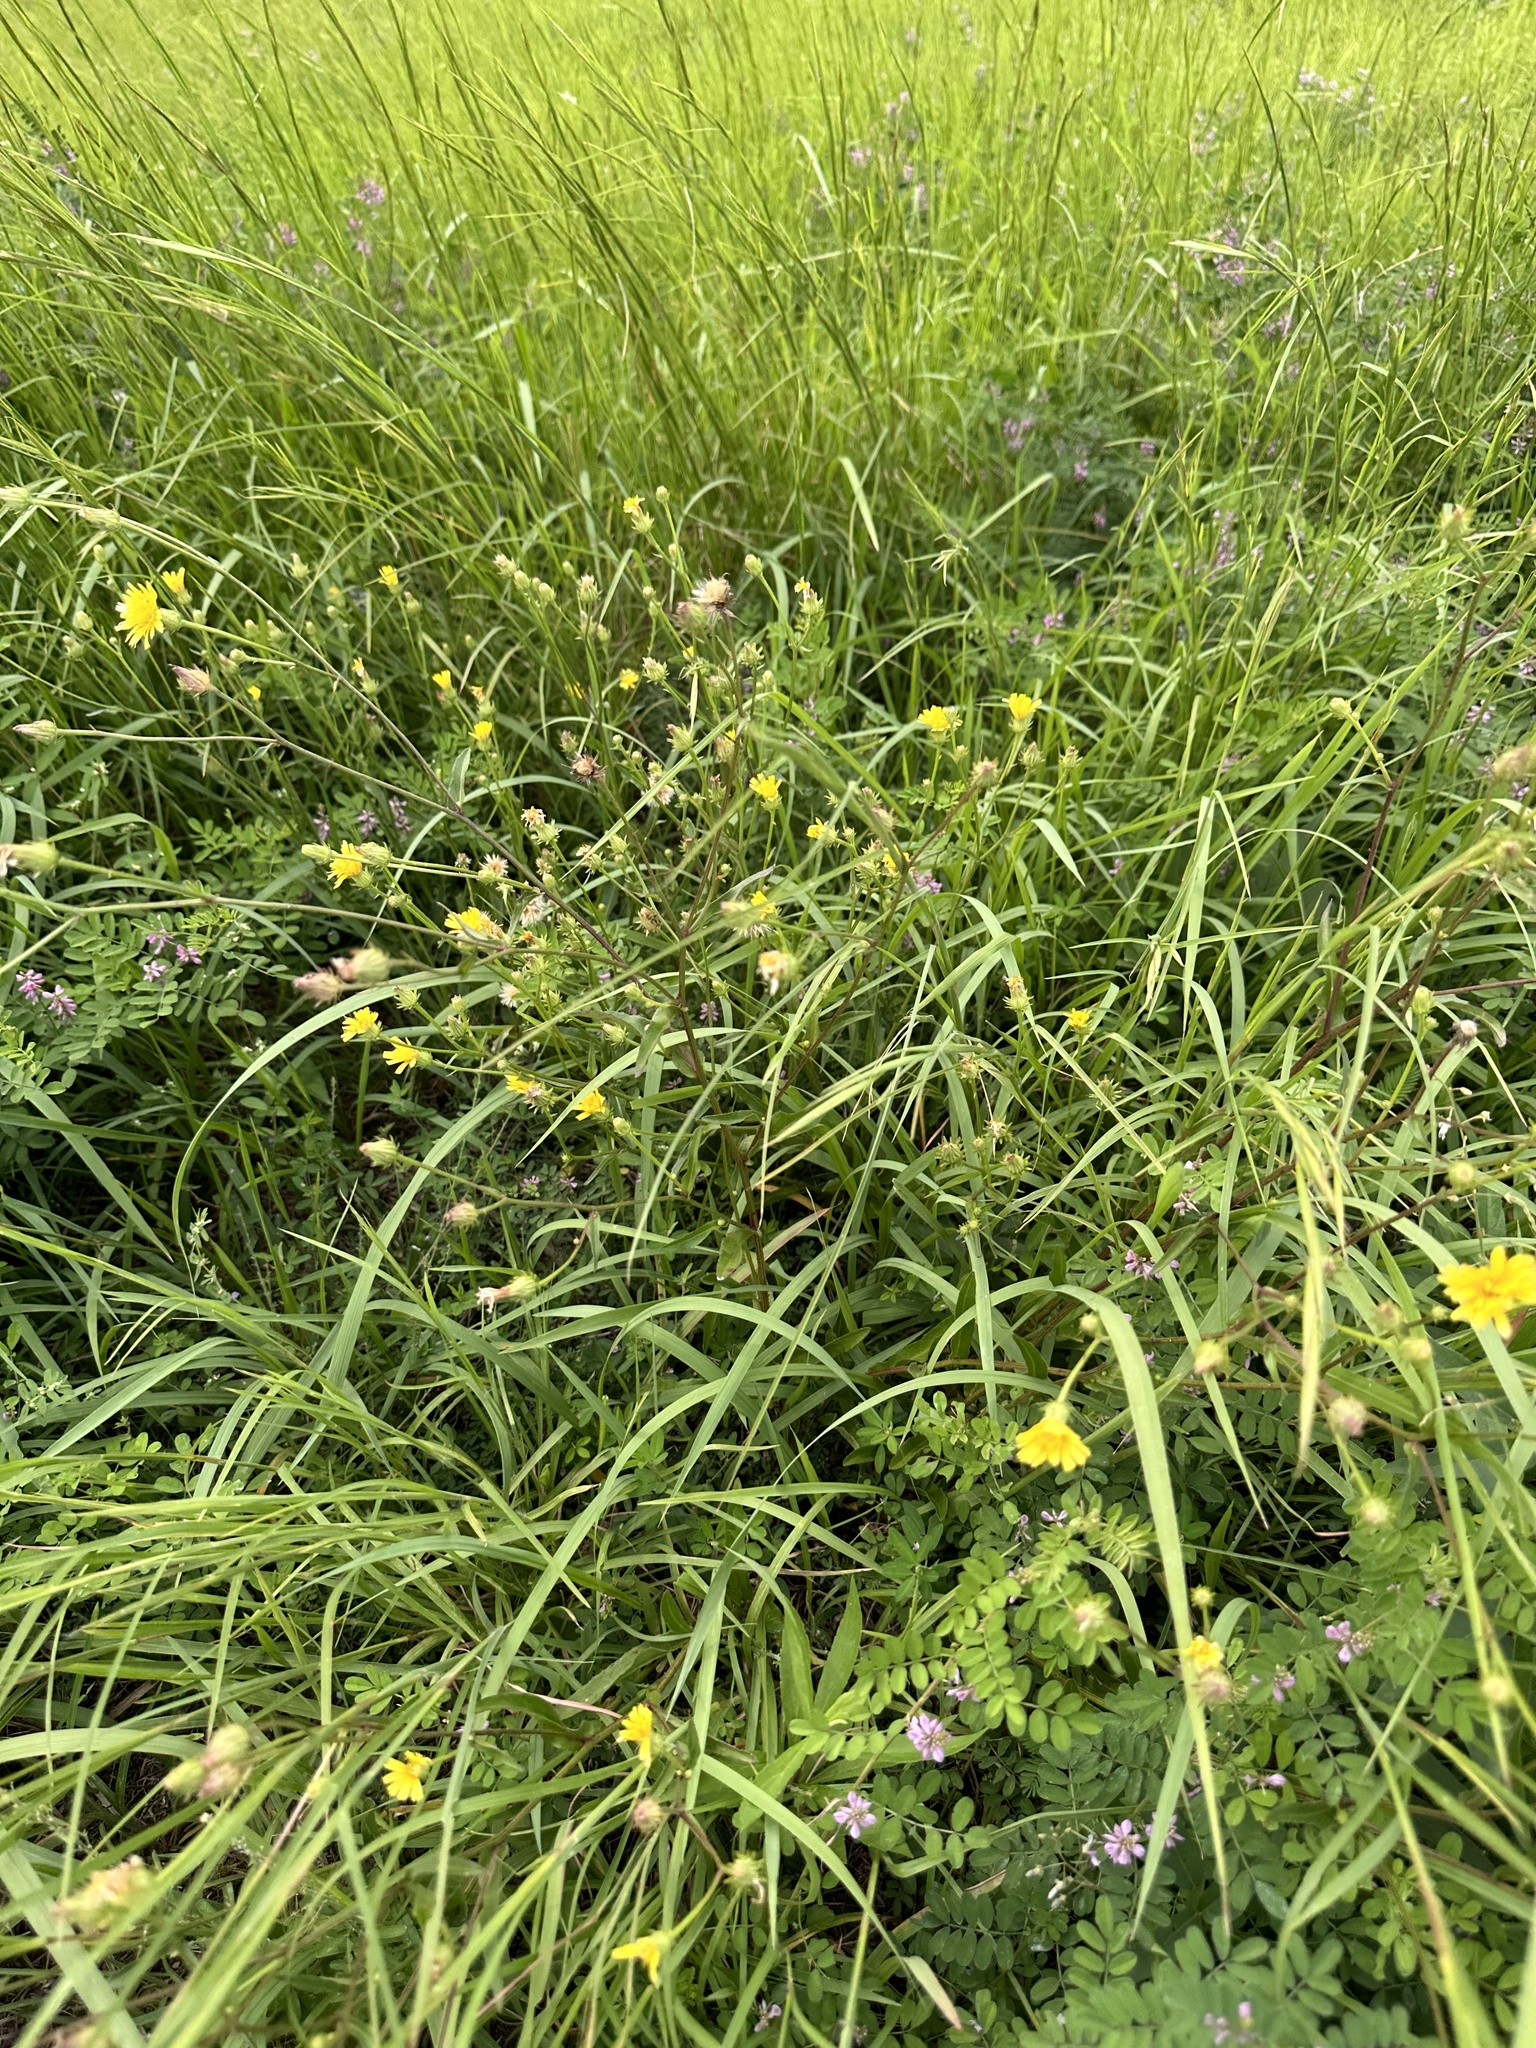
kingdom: Plantae
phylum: Tracheophyta
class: Magnoliopsida
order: Asterales
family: Asteraceae
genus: Picris
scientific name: Picris japonica
